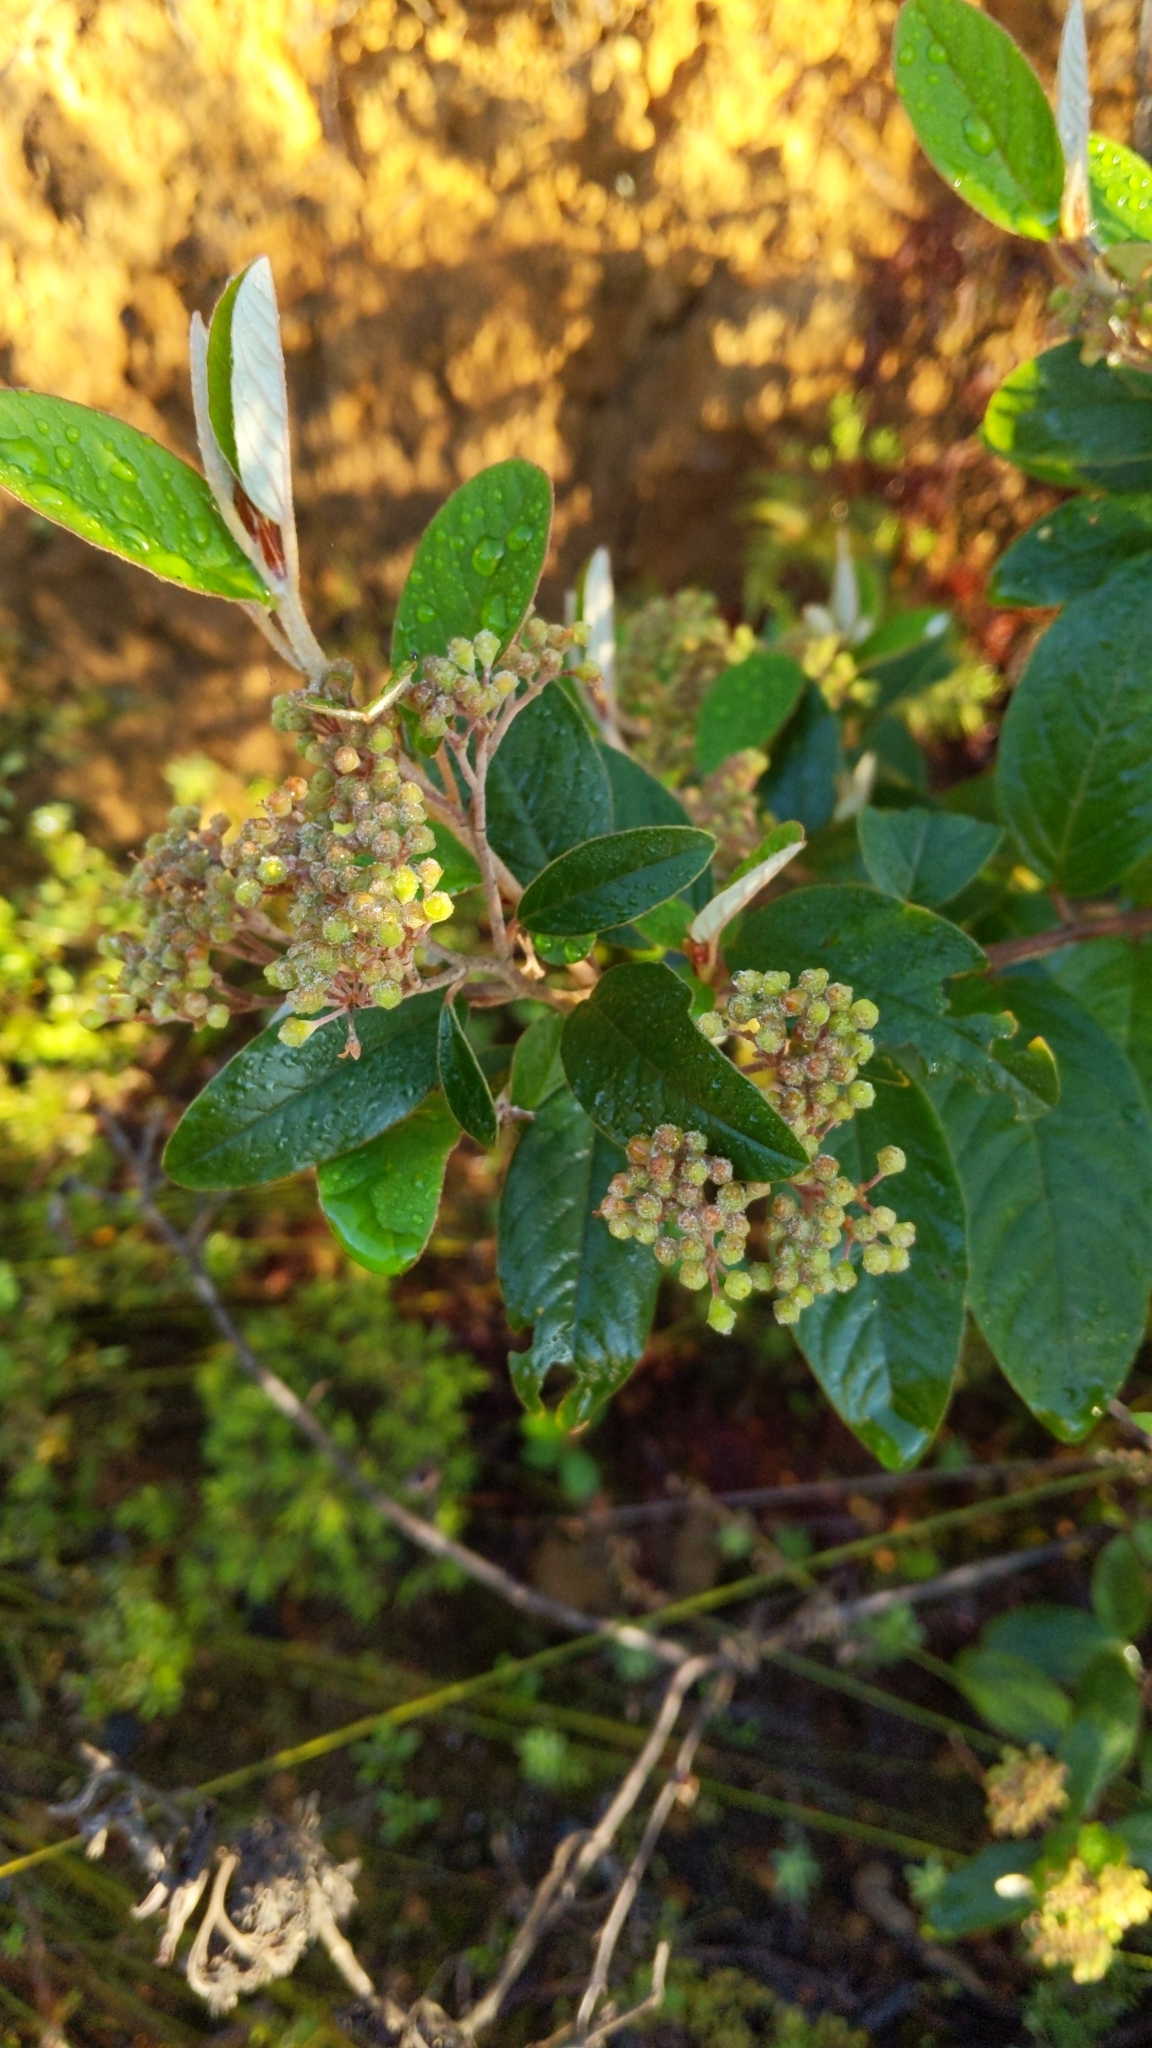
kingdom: Plantae
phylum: Tracheophyta
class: Magnoliopsida
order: Rosales
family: Rhamnaceae
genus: Pomaderris
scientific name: Pomaderris kumeraho
